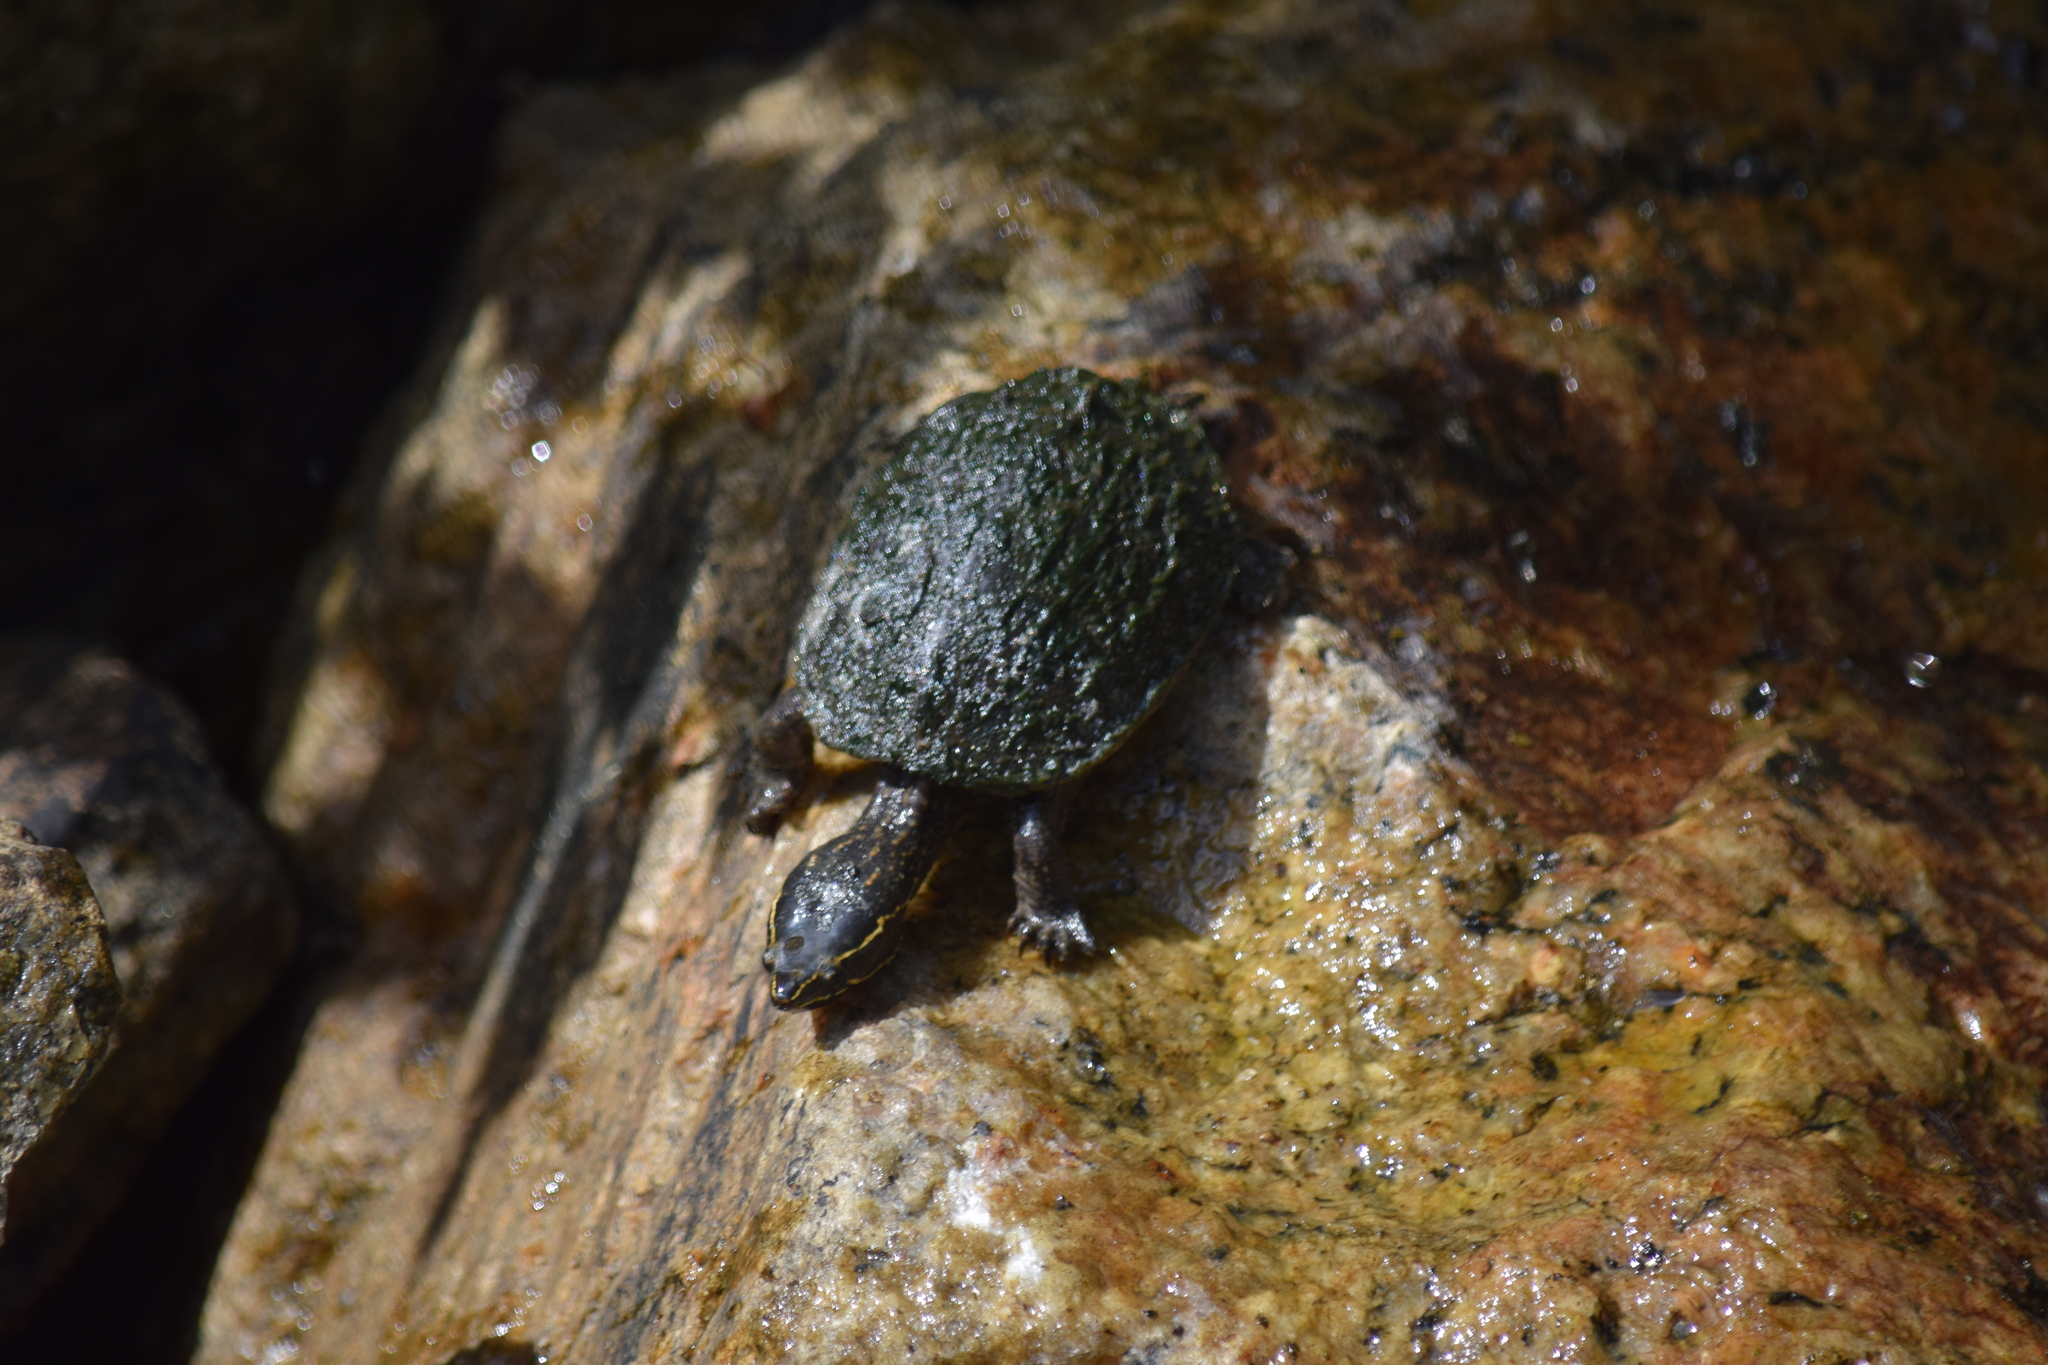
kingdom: Animalia
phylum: Chordata
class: Testudines
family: Kinosternidae
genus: Sternotherus
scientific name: Sternotherus odoratus
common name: Common musk turtle
